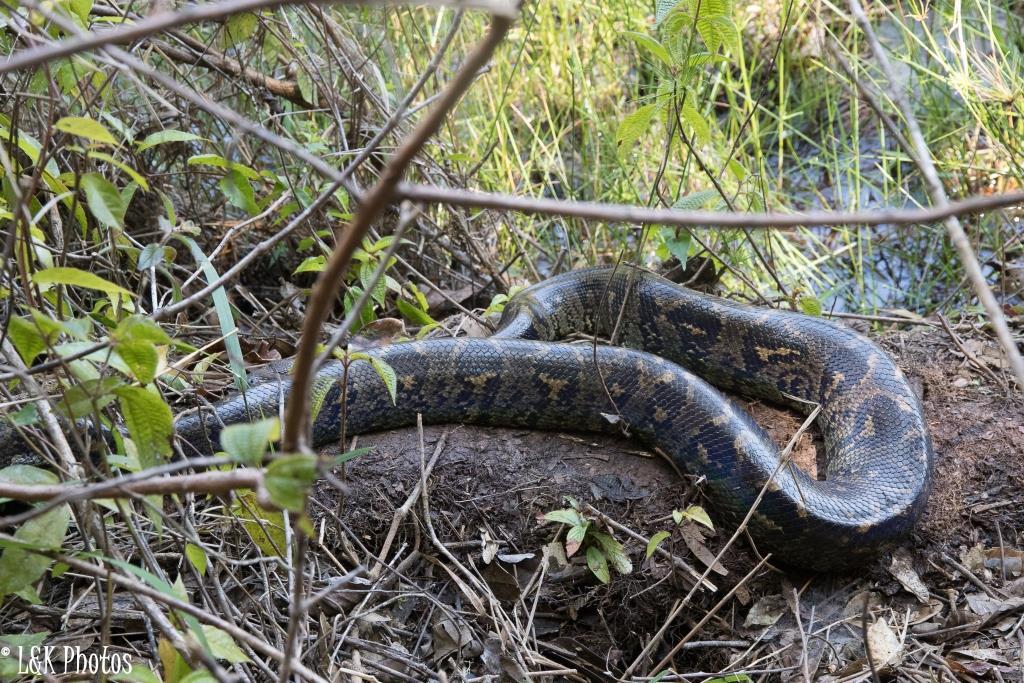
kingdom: Animalia
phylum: Chordata
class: Squamata
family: Boidae
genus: Sanzinia
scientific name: Sanzinia madagascariensis
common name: Madagascar tree boa
